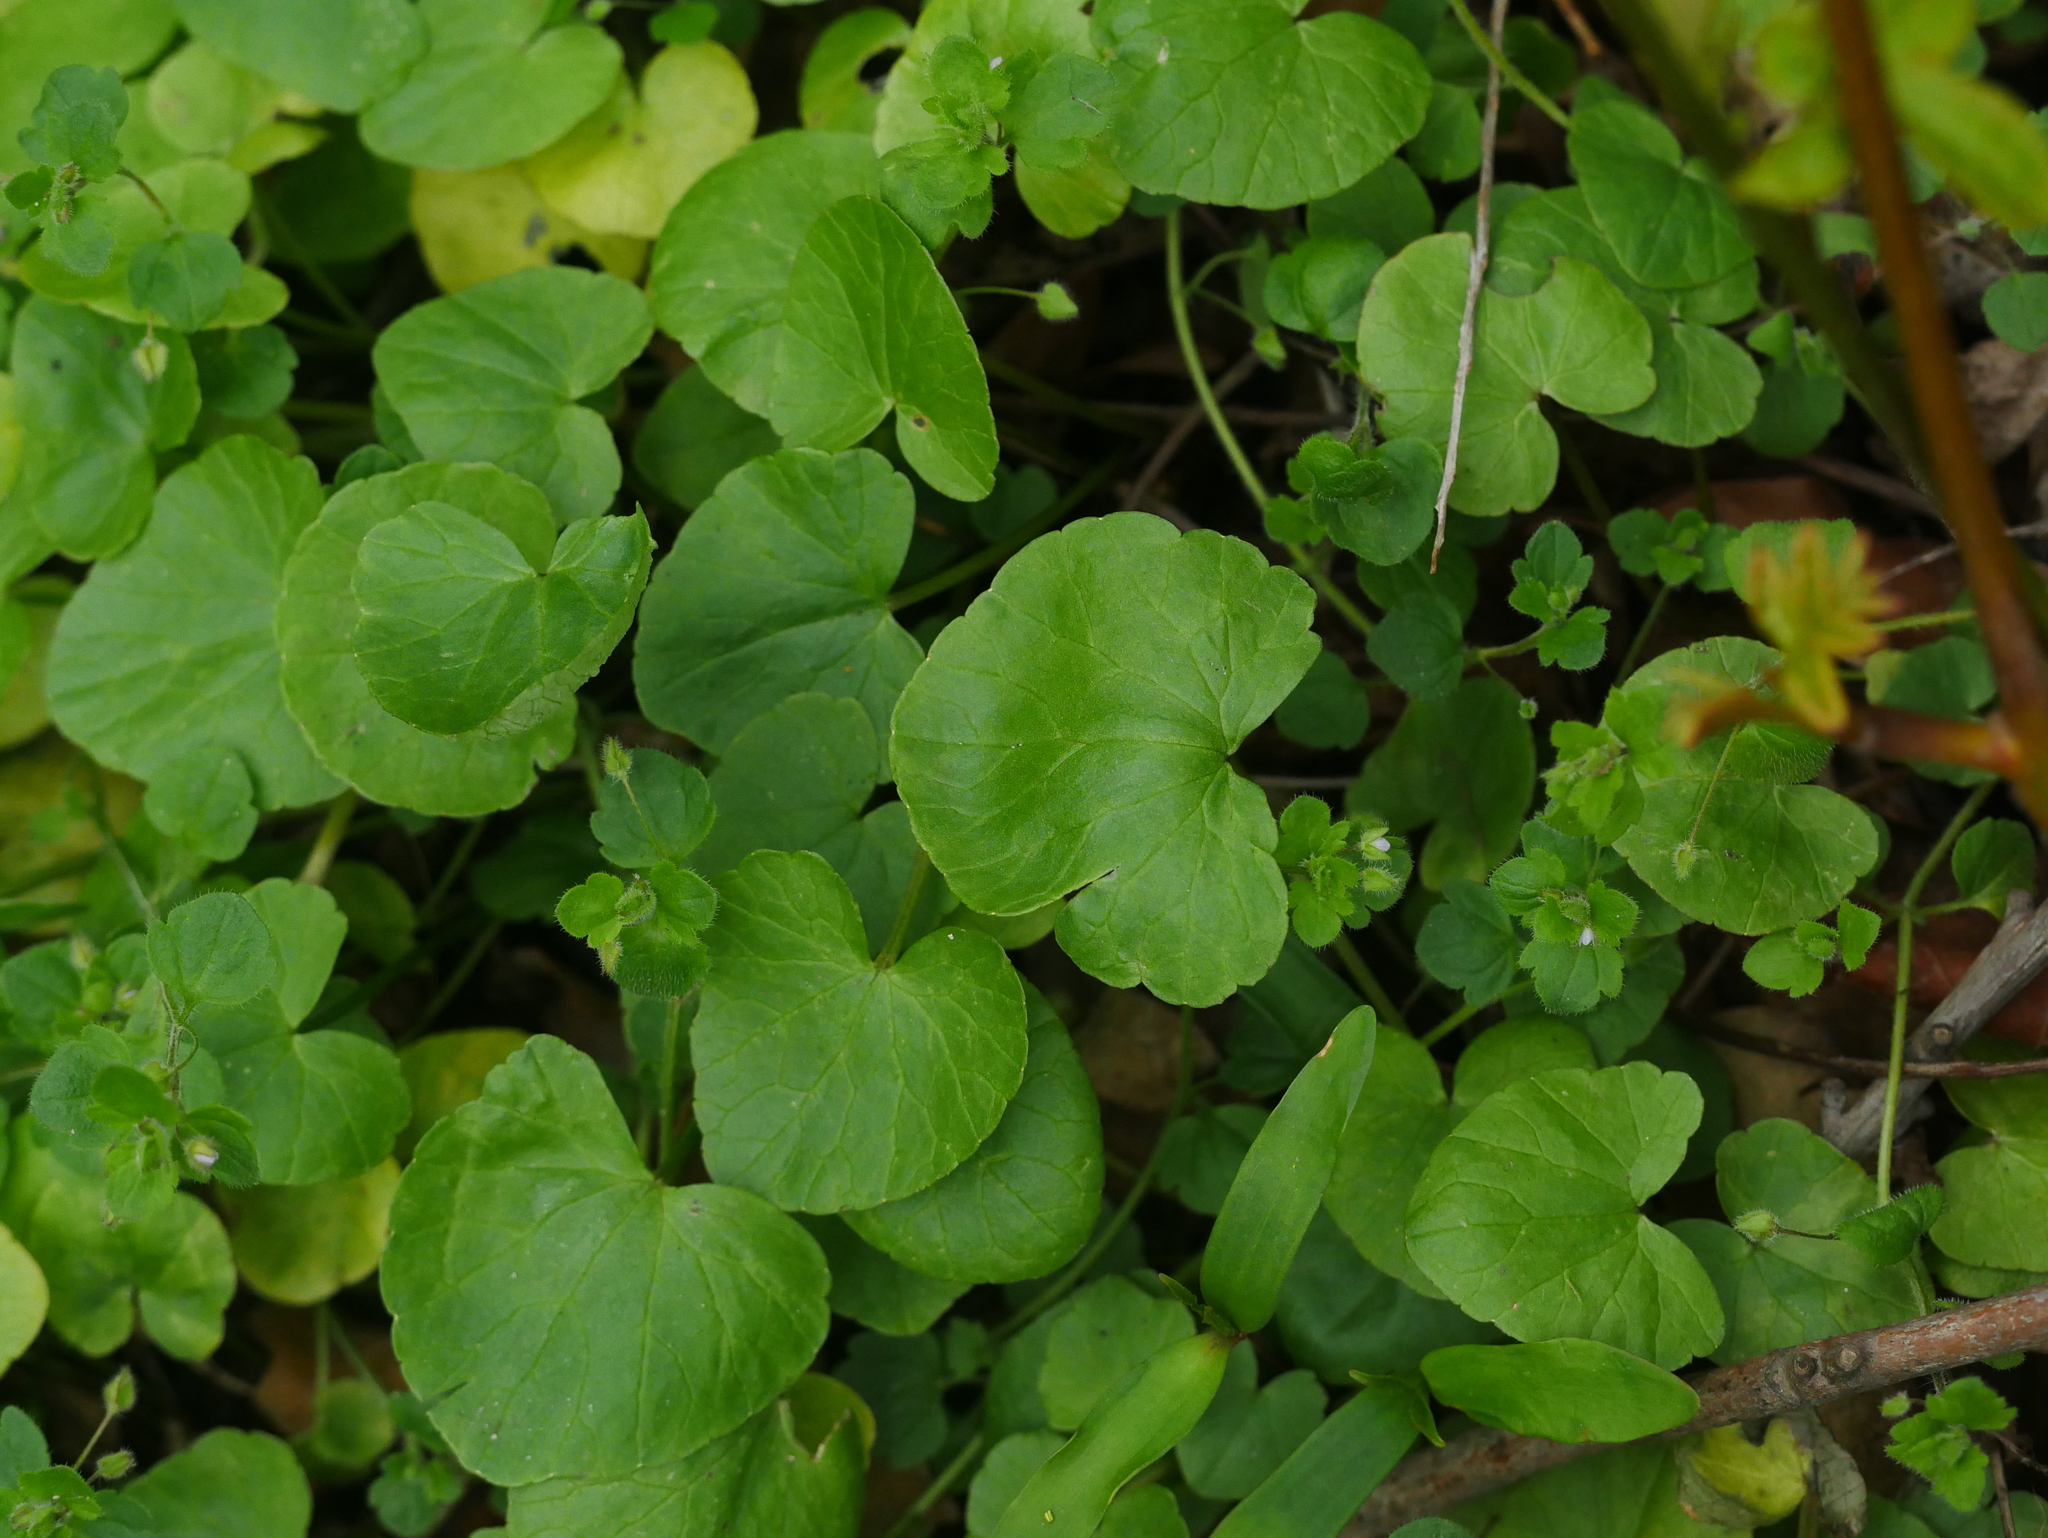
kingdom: Plantae
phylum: Tracheophyta
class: Magnoliopsida
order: Ranunculales
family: Ranunculaceae
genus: Ficaria
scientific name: Ficaria verna
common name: Lesser celandine
